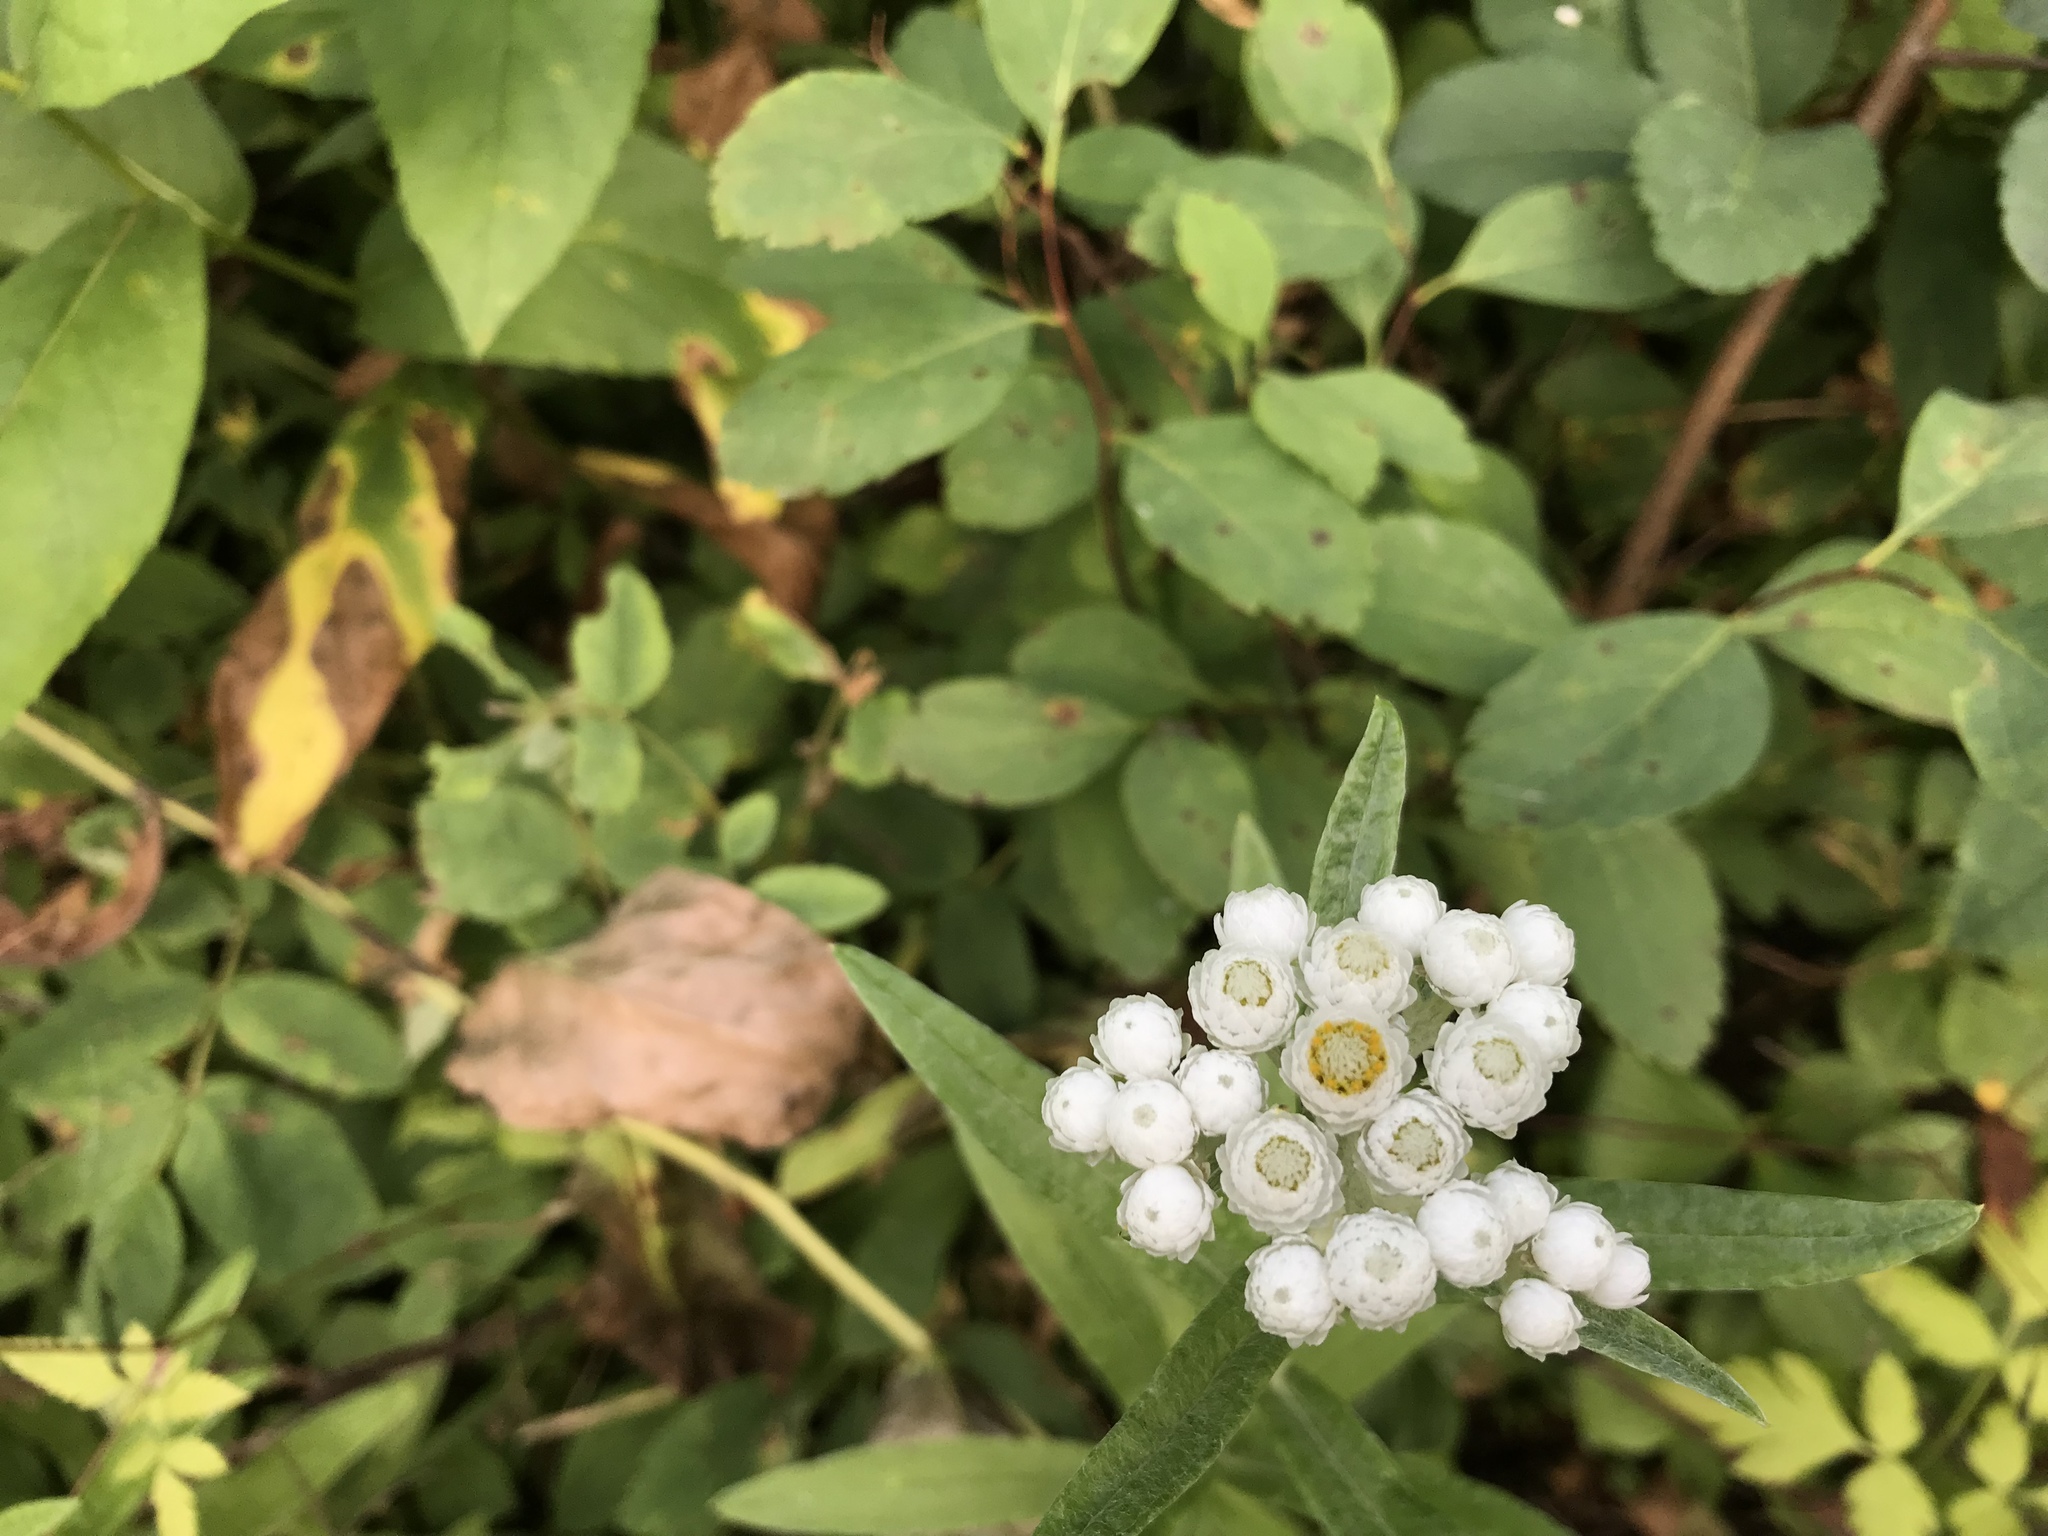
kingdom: Plantae
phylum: Tracheophyta
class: Magnoliopsida
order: Asterales
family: Asteraceae
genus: Anaphalis
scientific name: Anaphalis margaritacea
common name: Pearly everlasting
